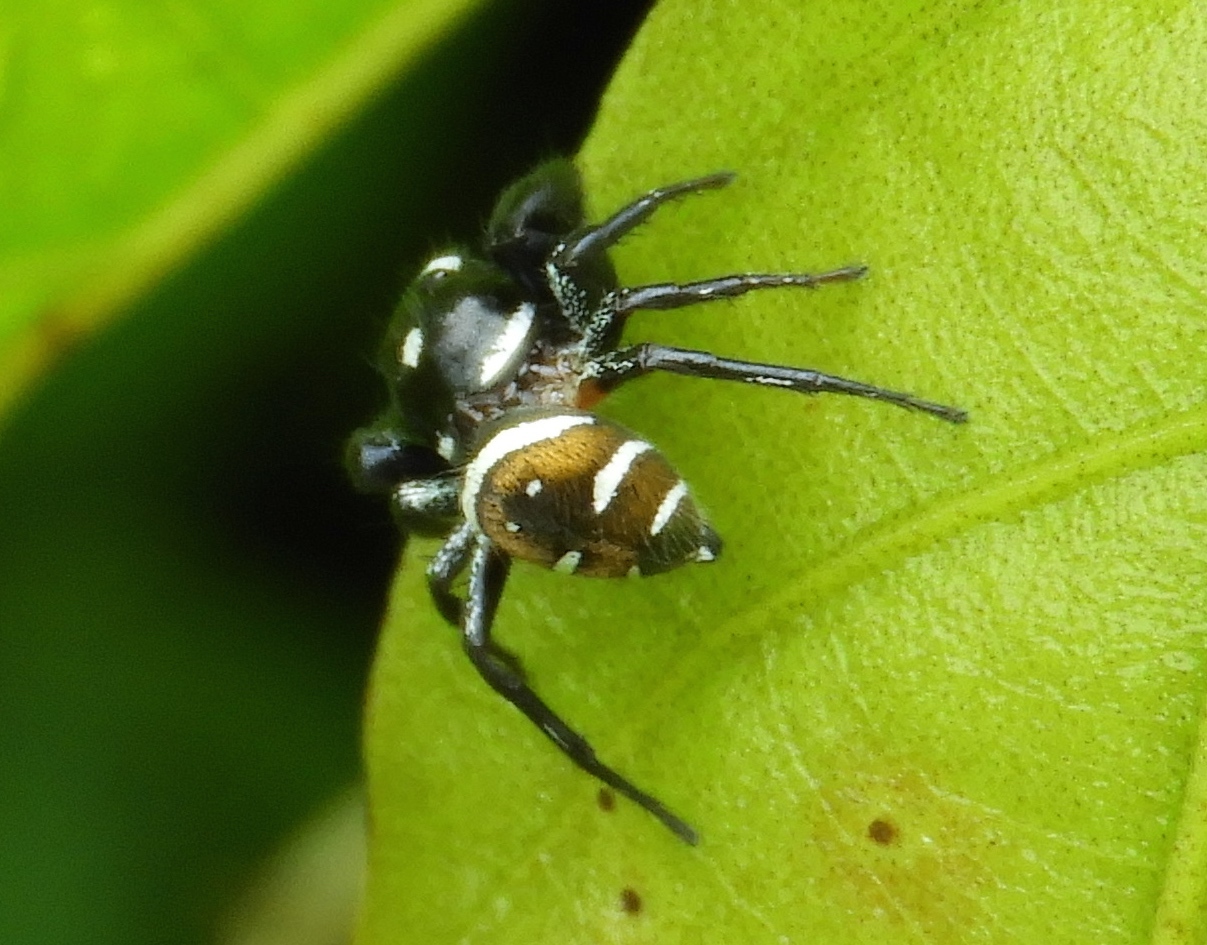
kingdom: Animalia
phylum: Arthropoda
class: Arachnida
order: Araneae
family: Salticidae
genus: Sassacus
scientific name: Sassacus
